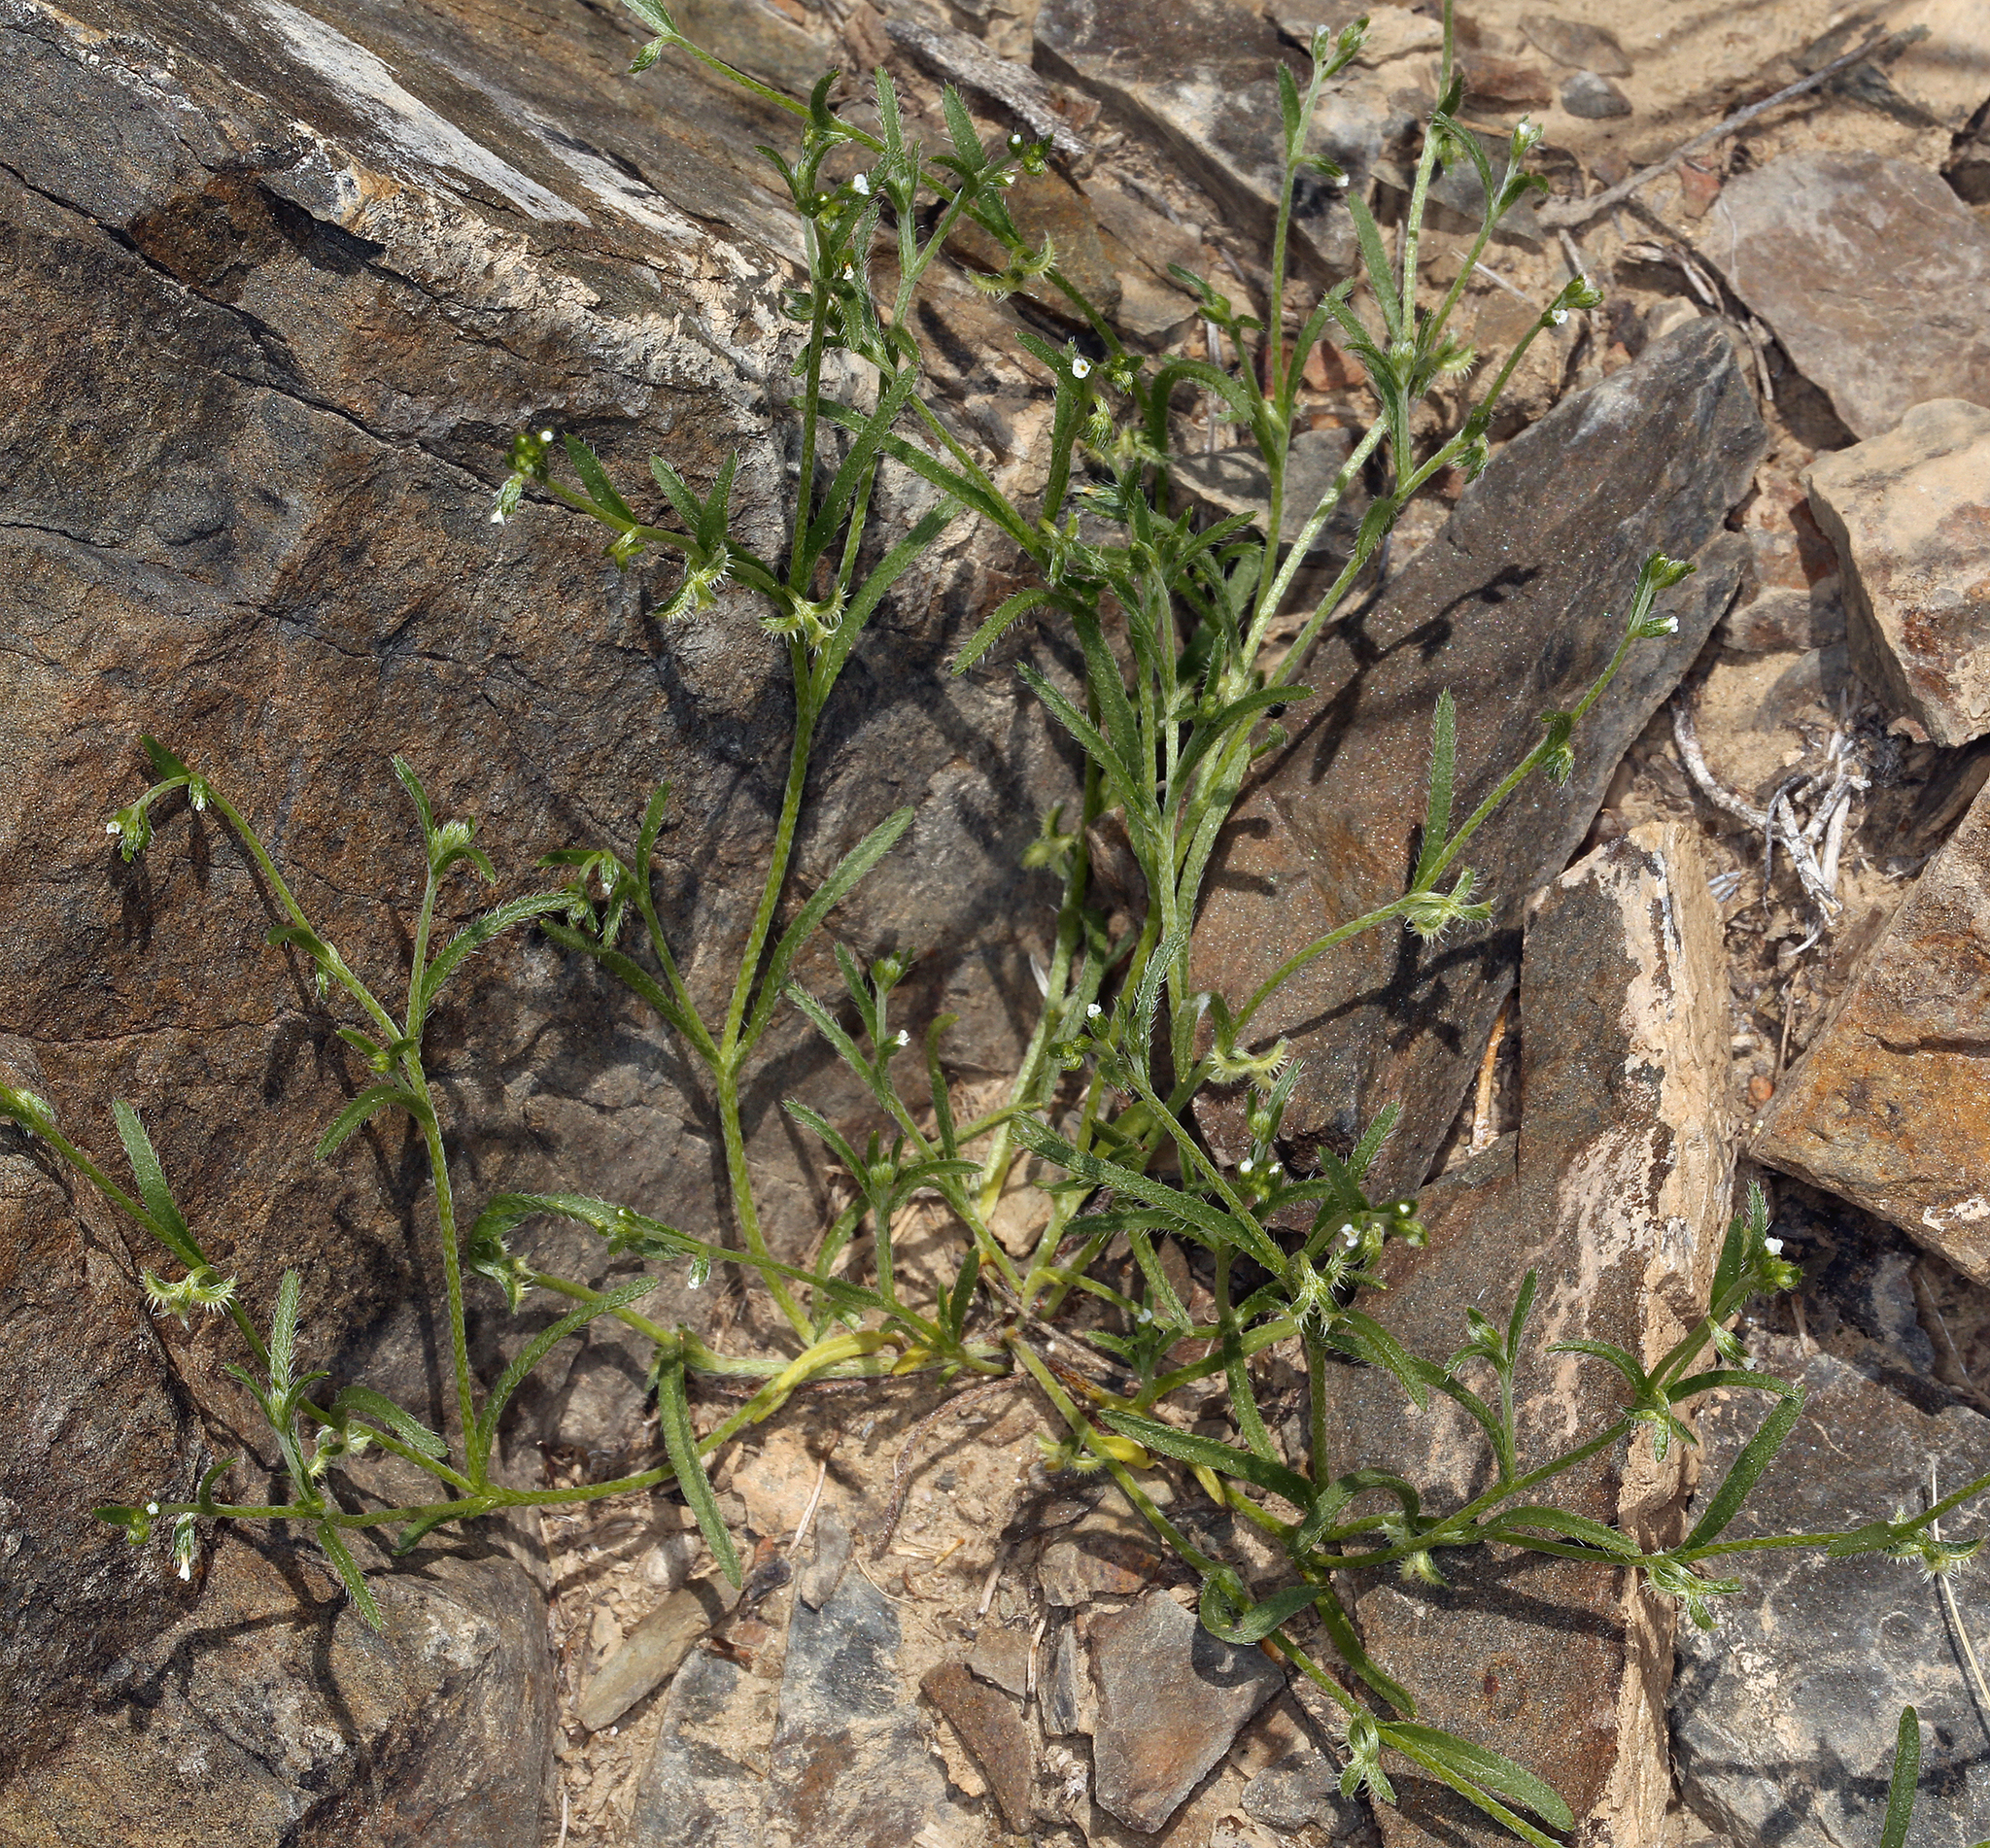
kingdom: Plantae
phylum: Tracheophyta
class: Magnoliopsida
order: Boraginales
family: Boraginaceae
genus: Pectocarya
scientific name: Pectocarya recurvata
